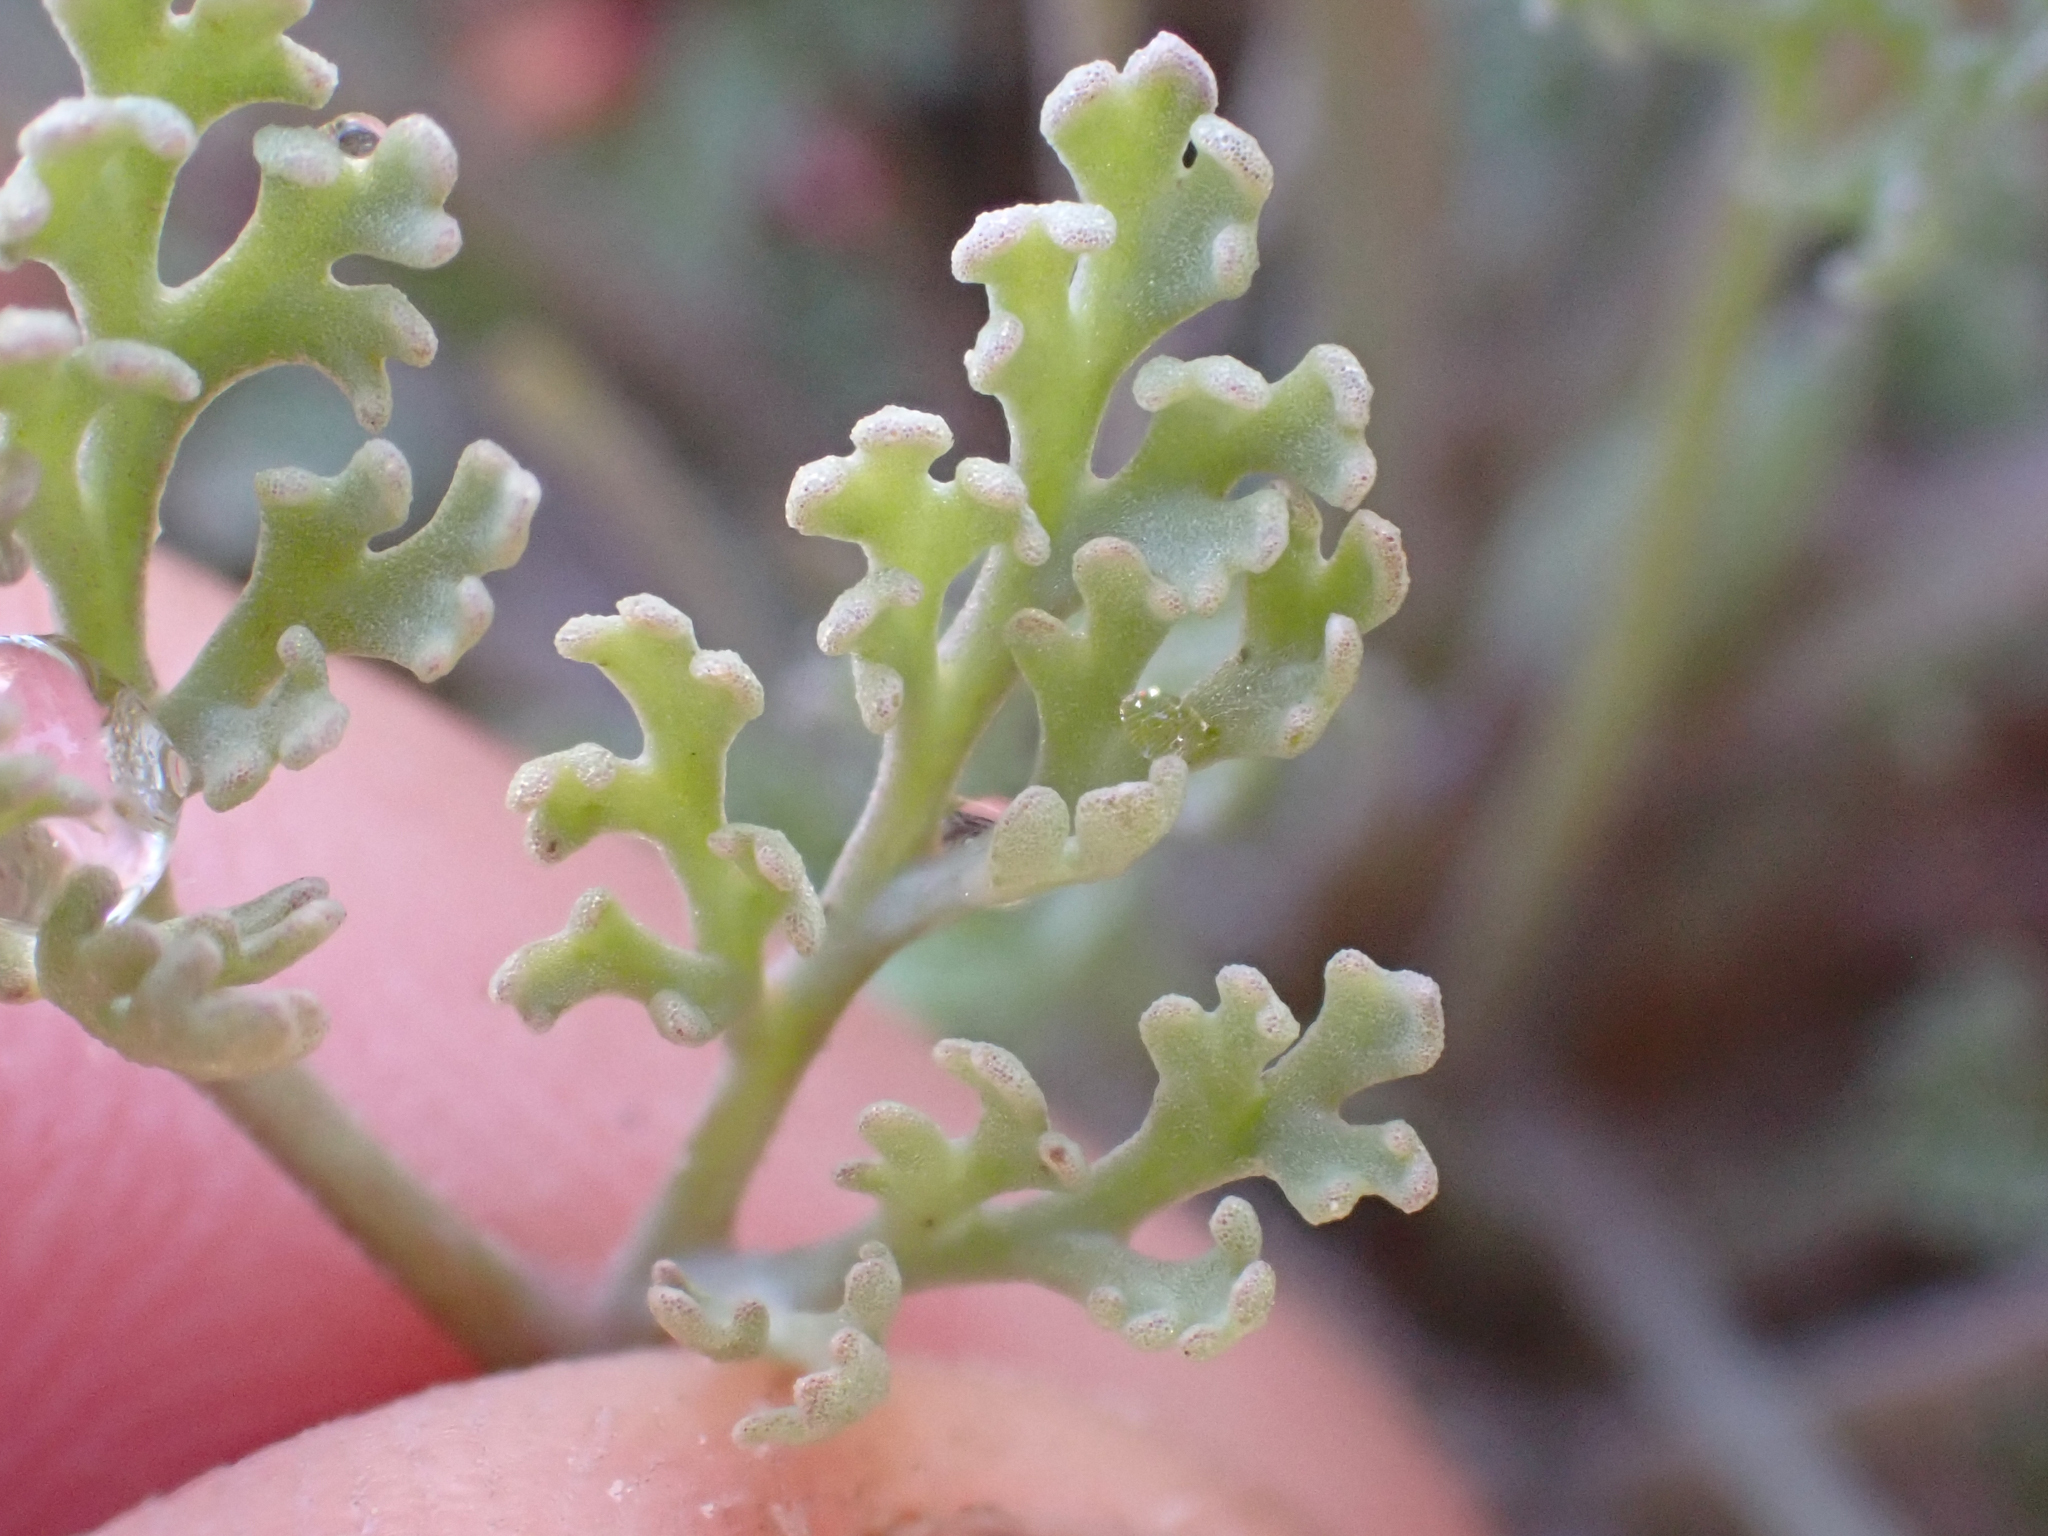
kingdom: Plantae
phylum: Tracheophyta
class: Magnoliopsida
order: Ranunculales
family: Papaveraceae
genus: Eschscholzia
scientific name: Eschscholzia lemmonii
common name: Lemmon's poppy
